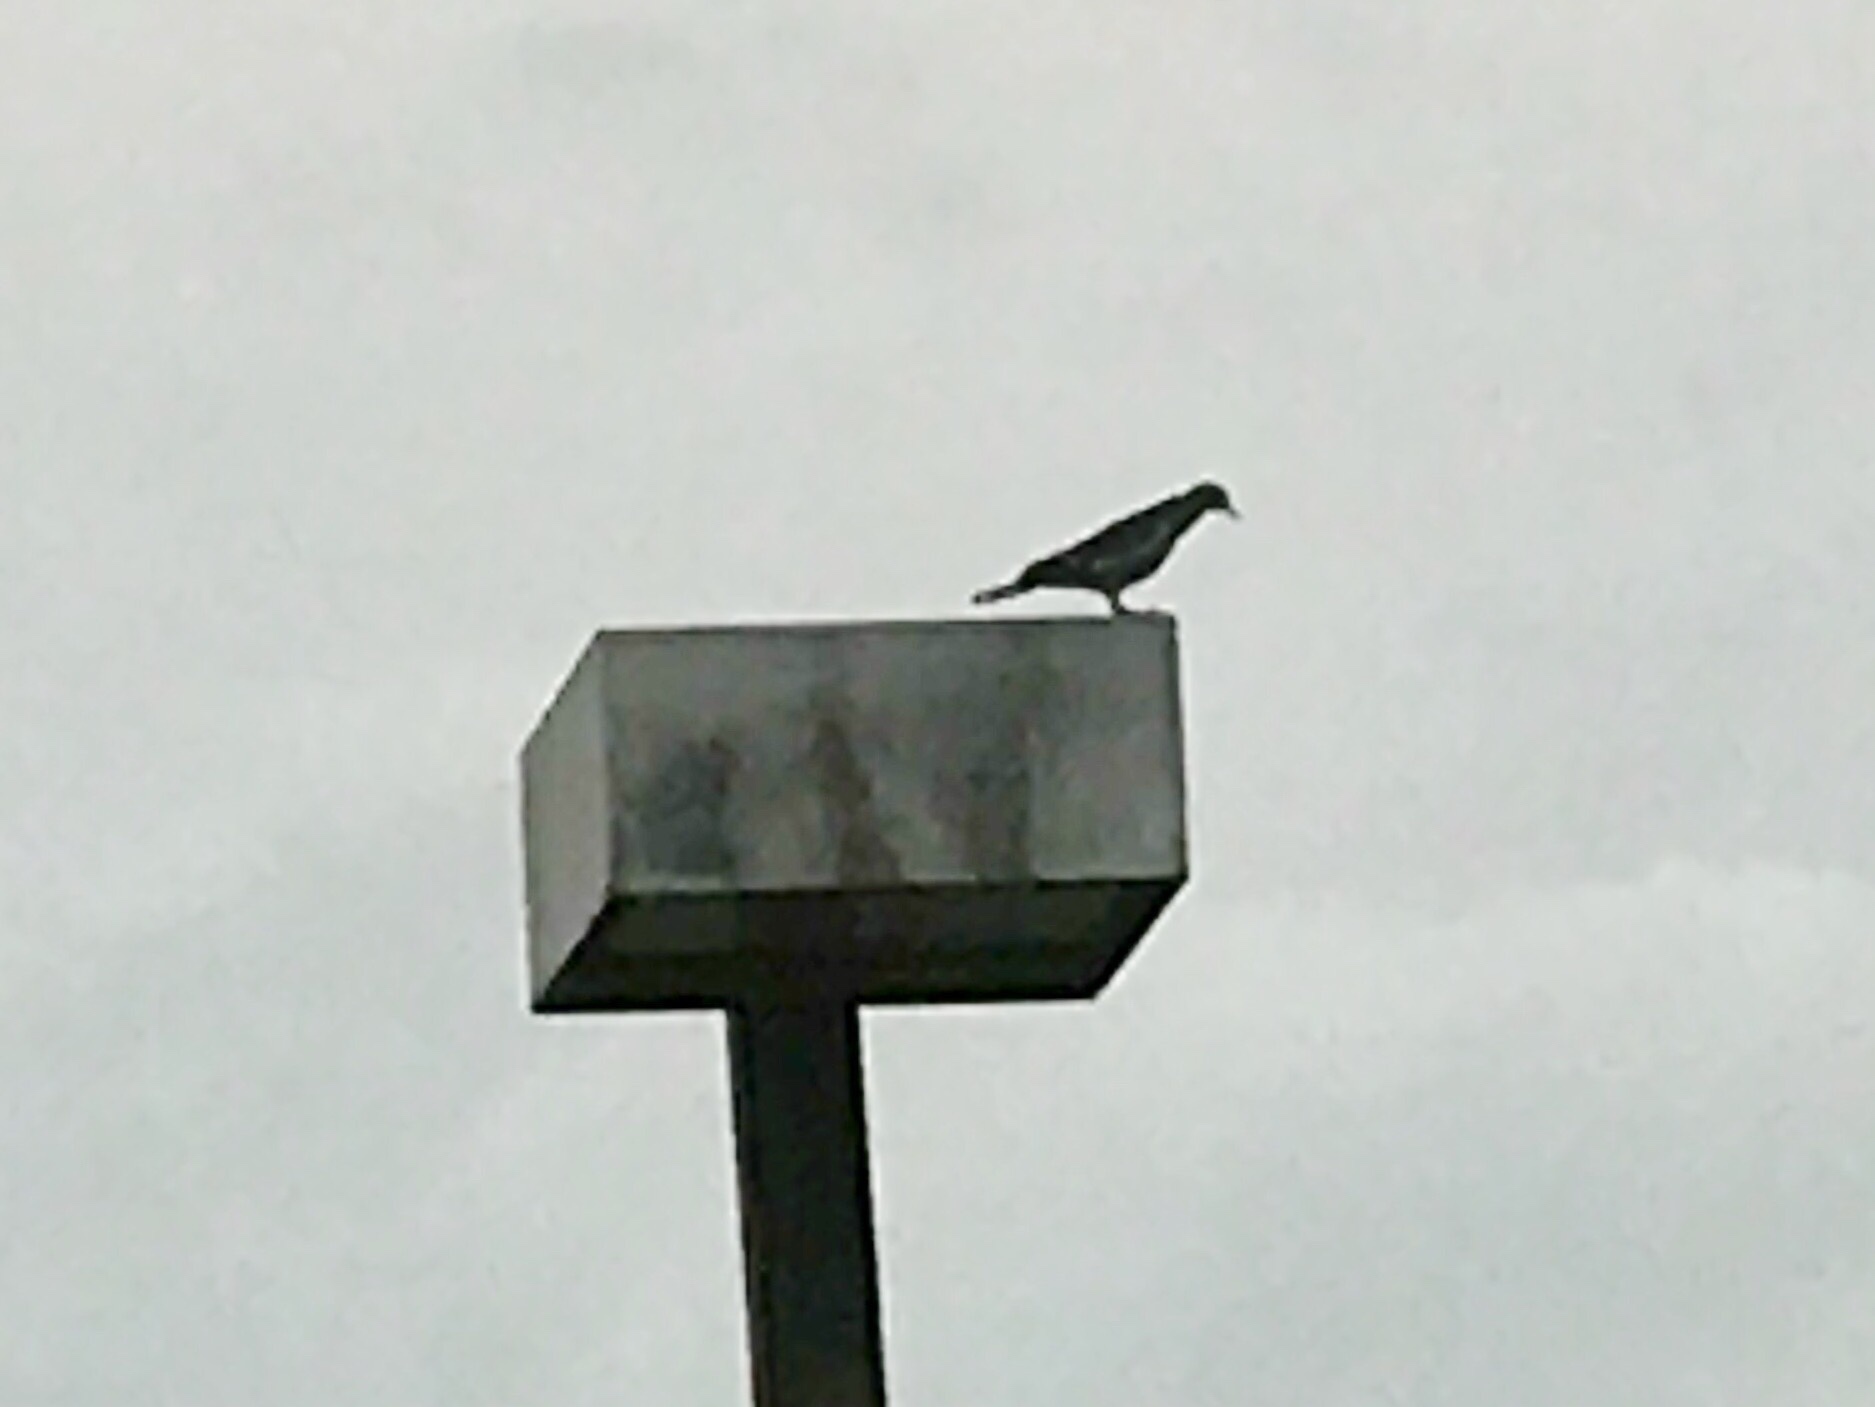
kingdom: Animalia
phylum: Chordata
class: Aves
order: Columbiformes
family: Columbidae
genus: Zenaida
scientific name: Zenaida asiatica
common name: White-winged dove
